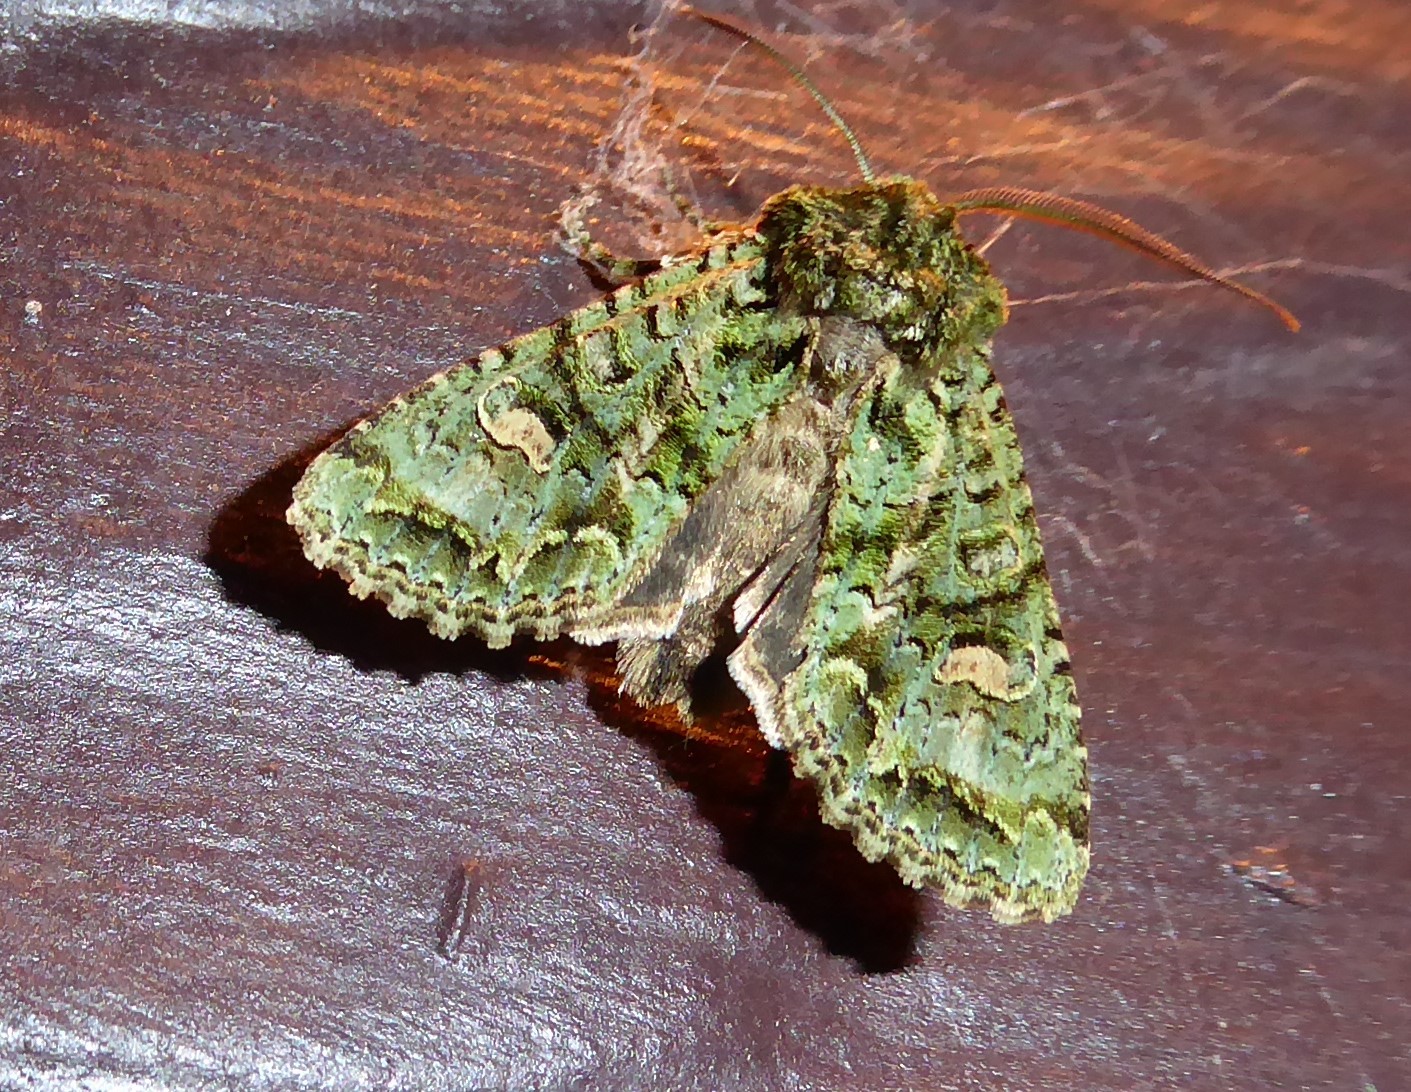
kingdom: Animalia
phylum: Arthropoda
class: Insecta
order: Lepidoptera
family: Noctuidae
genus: Ichneutica
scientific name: Ichneutica
